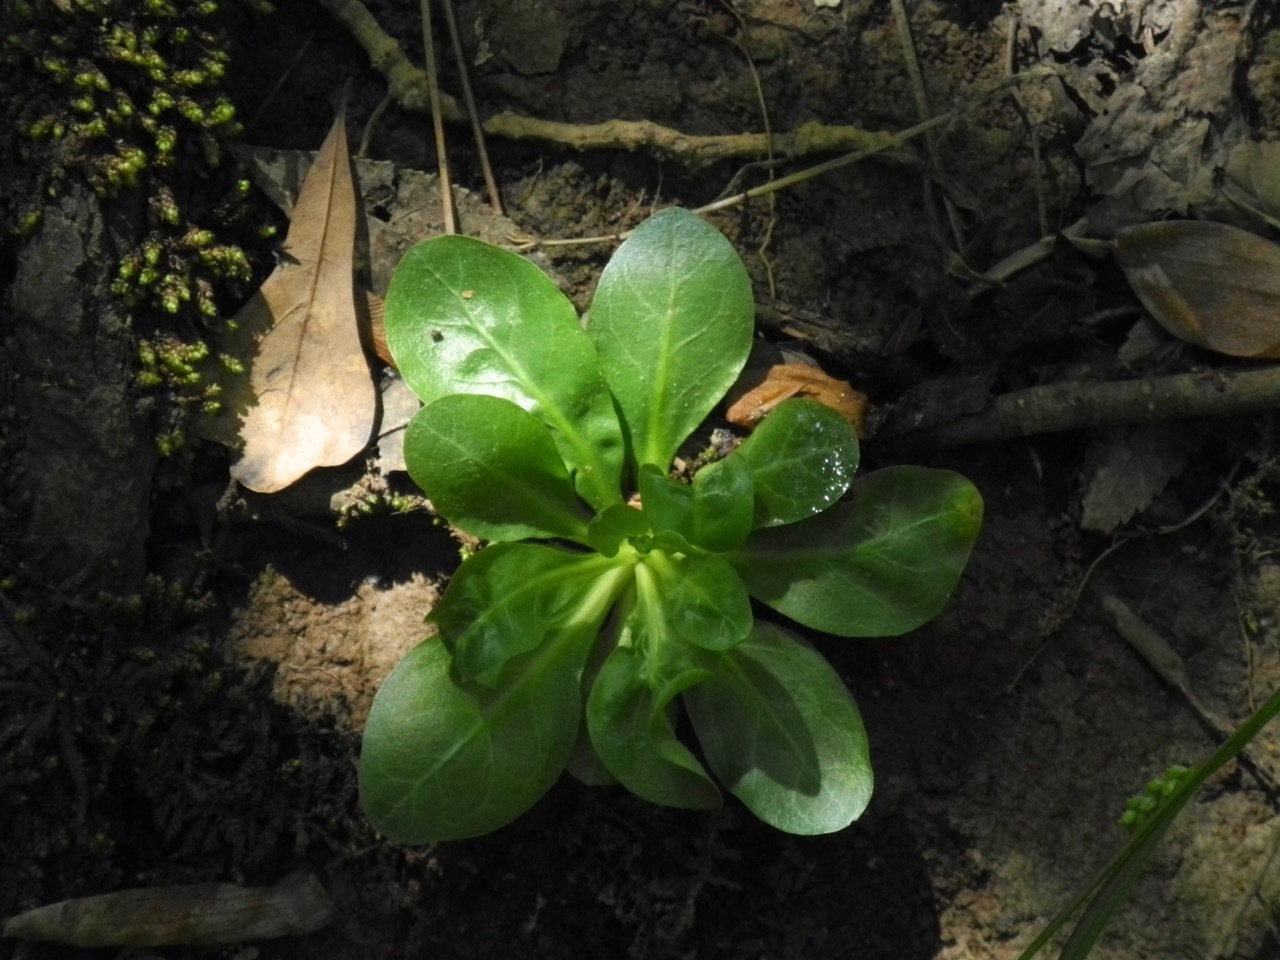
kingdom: Plantae
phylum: Tracheophyta
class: Magnoliopsida
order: Ericales
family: Primulaceae
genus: Samolus
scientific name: Samolus parviflorus
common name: False water pimpernel
